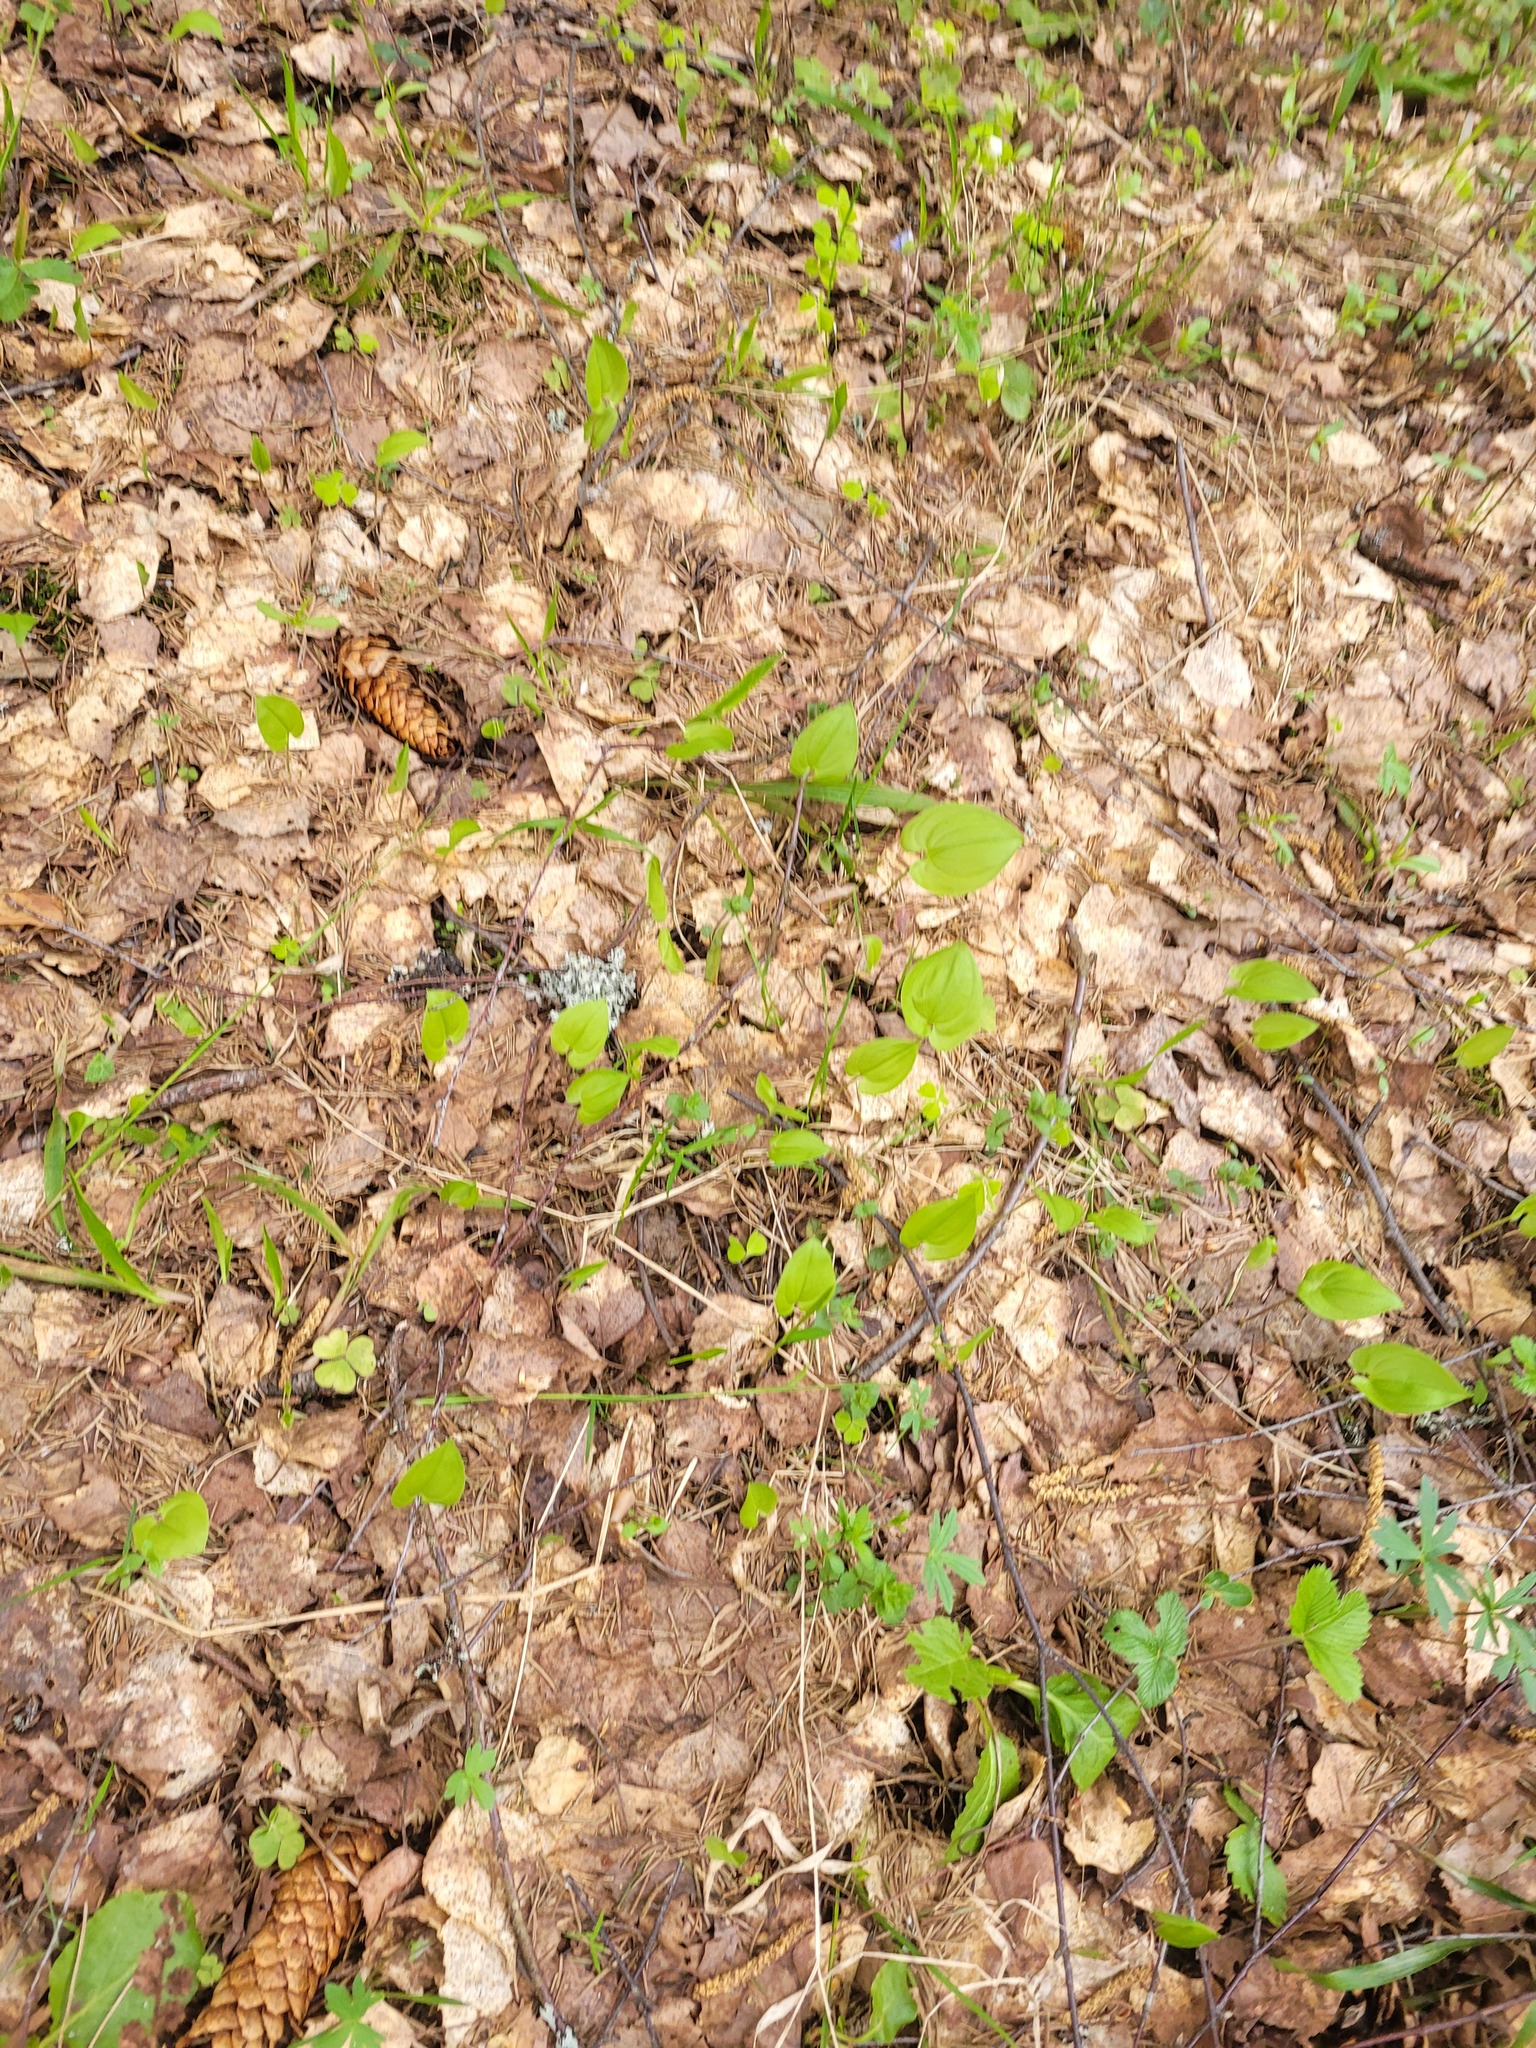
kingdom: Plantae
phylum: Tracheophyta
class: Liliopsida
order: Asparagales
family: Asparagaceae
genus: Maianthemum
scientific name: Maianthemum bifolium
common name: May lily
